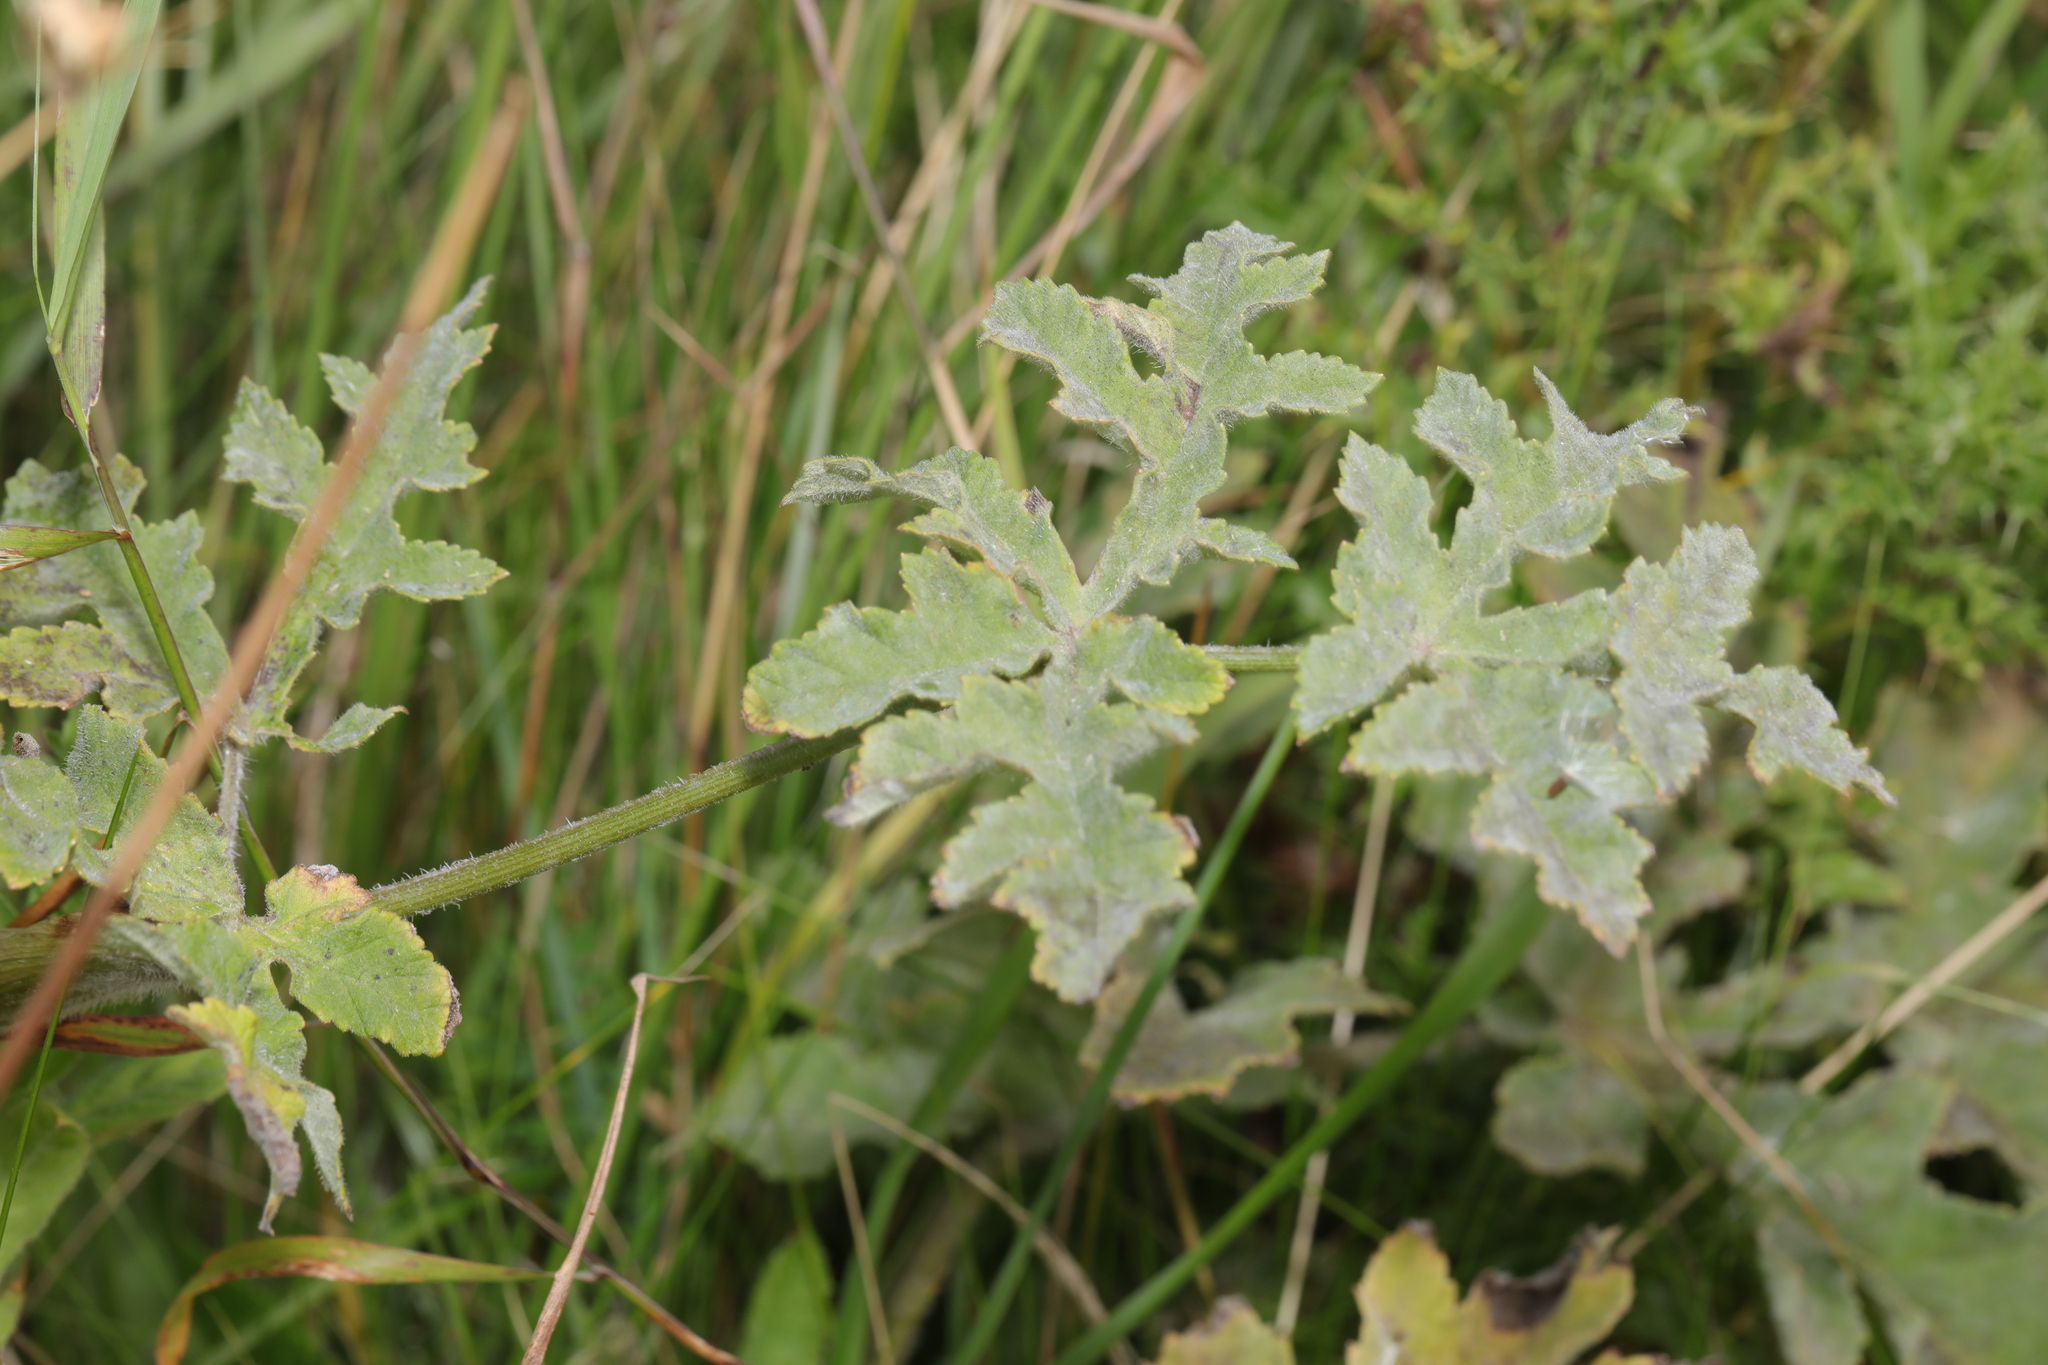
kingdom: Plantae
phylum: Tracheophyta
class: Magnoliopsida
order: Apiales
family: Apiaceae
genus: Heracleum
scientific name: Heracleum sphondylium
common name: Hogweed
